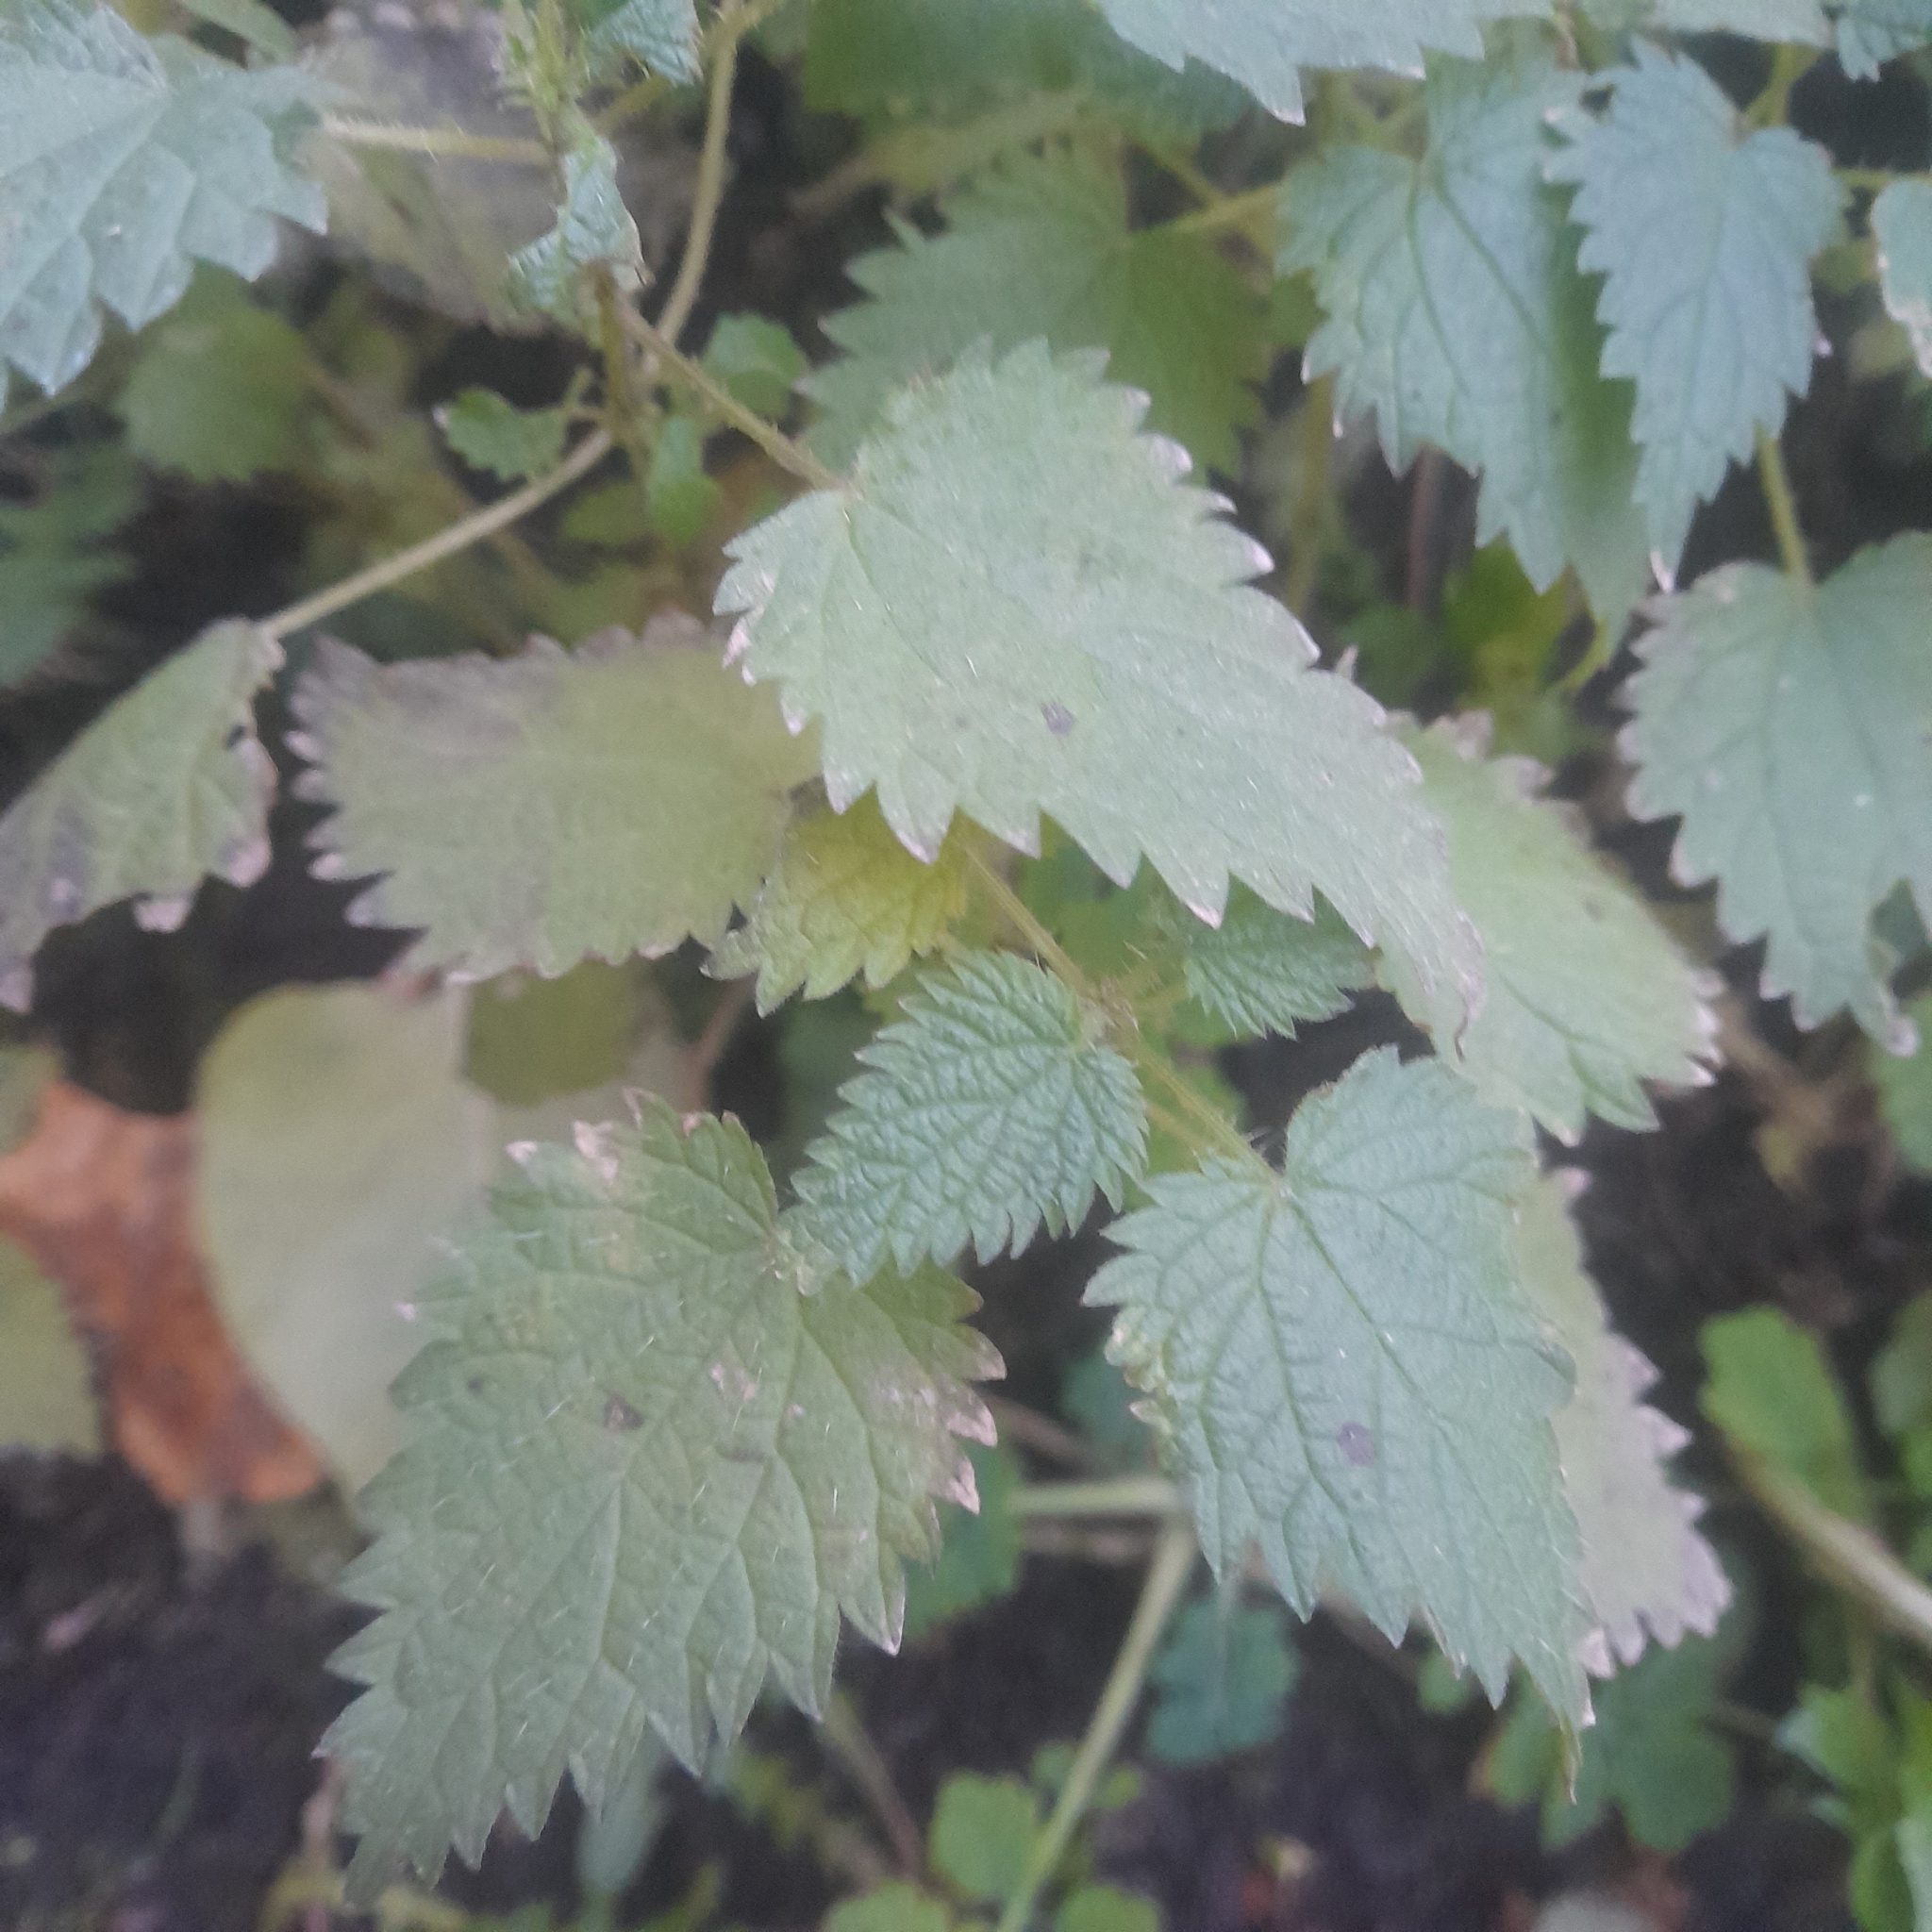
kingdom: Plantae
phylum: Tracheophyta
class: Magnoliopsida
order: Rosales
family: Urticaceae
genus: Urtica
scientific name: Urtica dioica
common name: Common nettle
